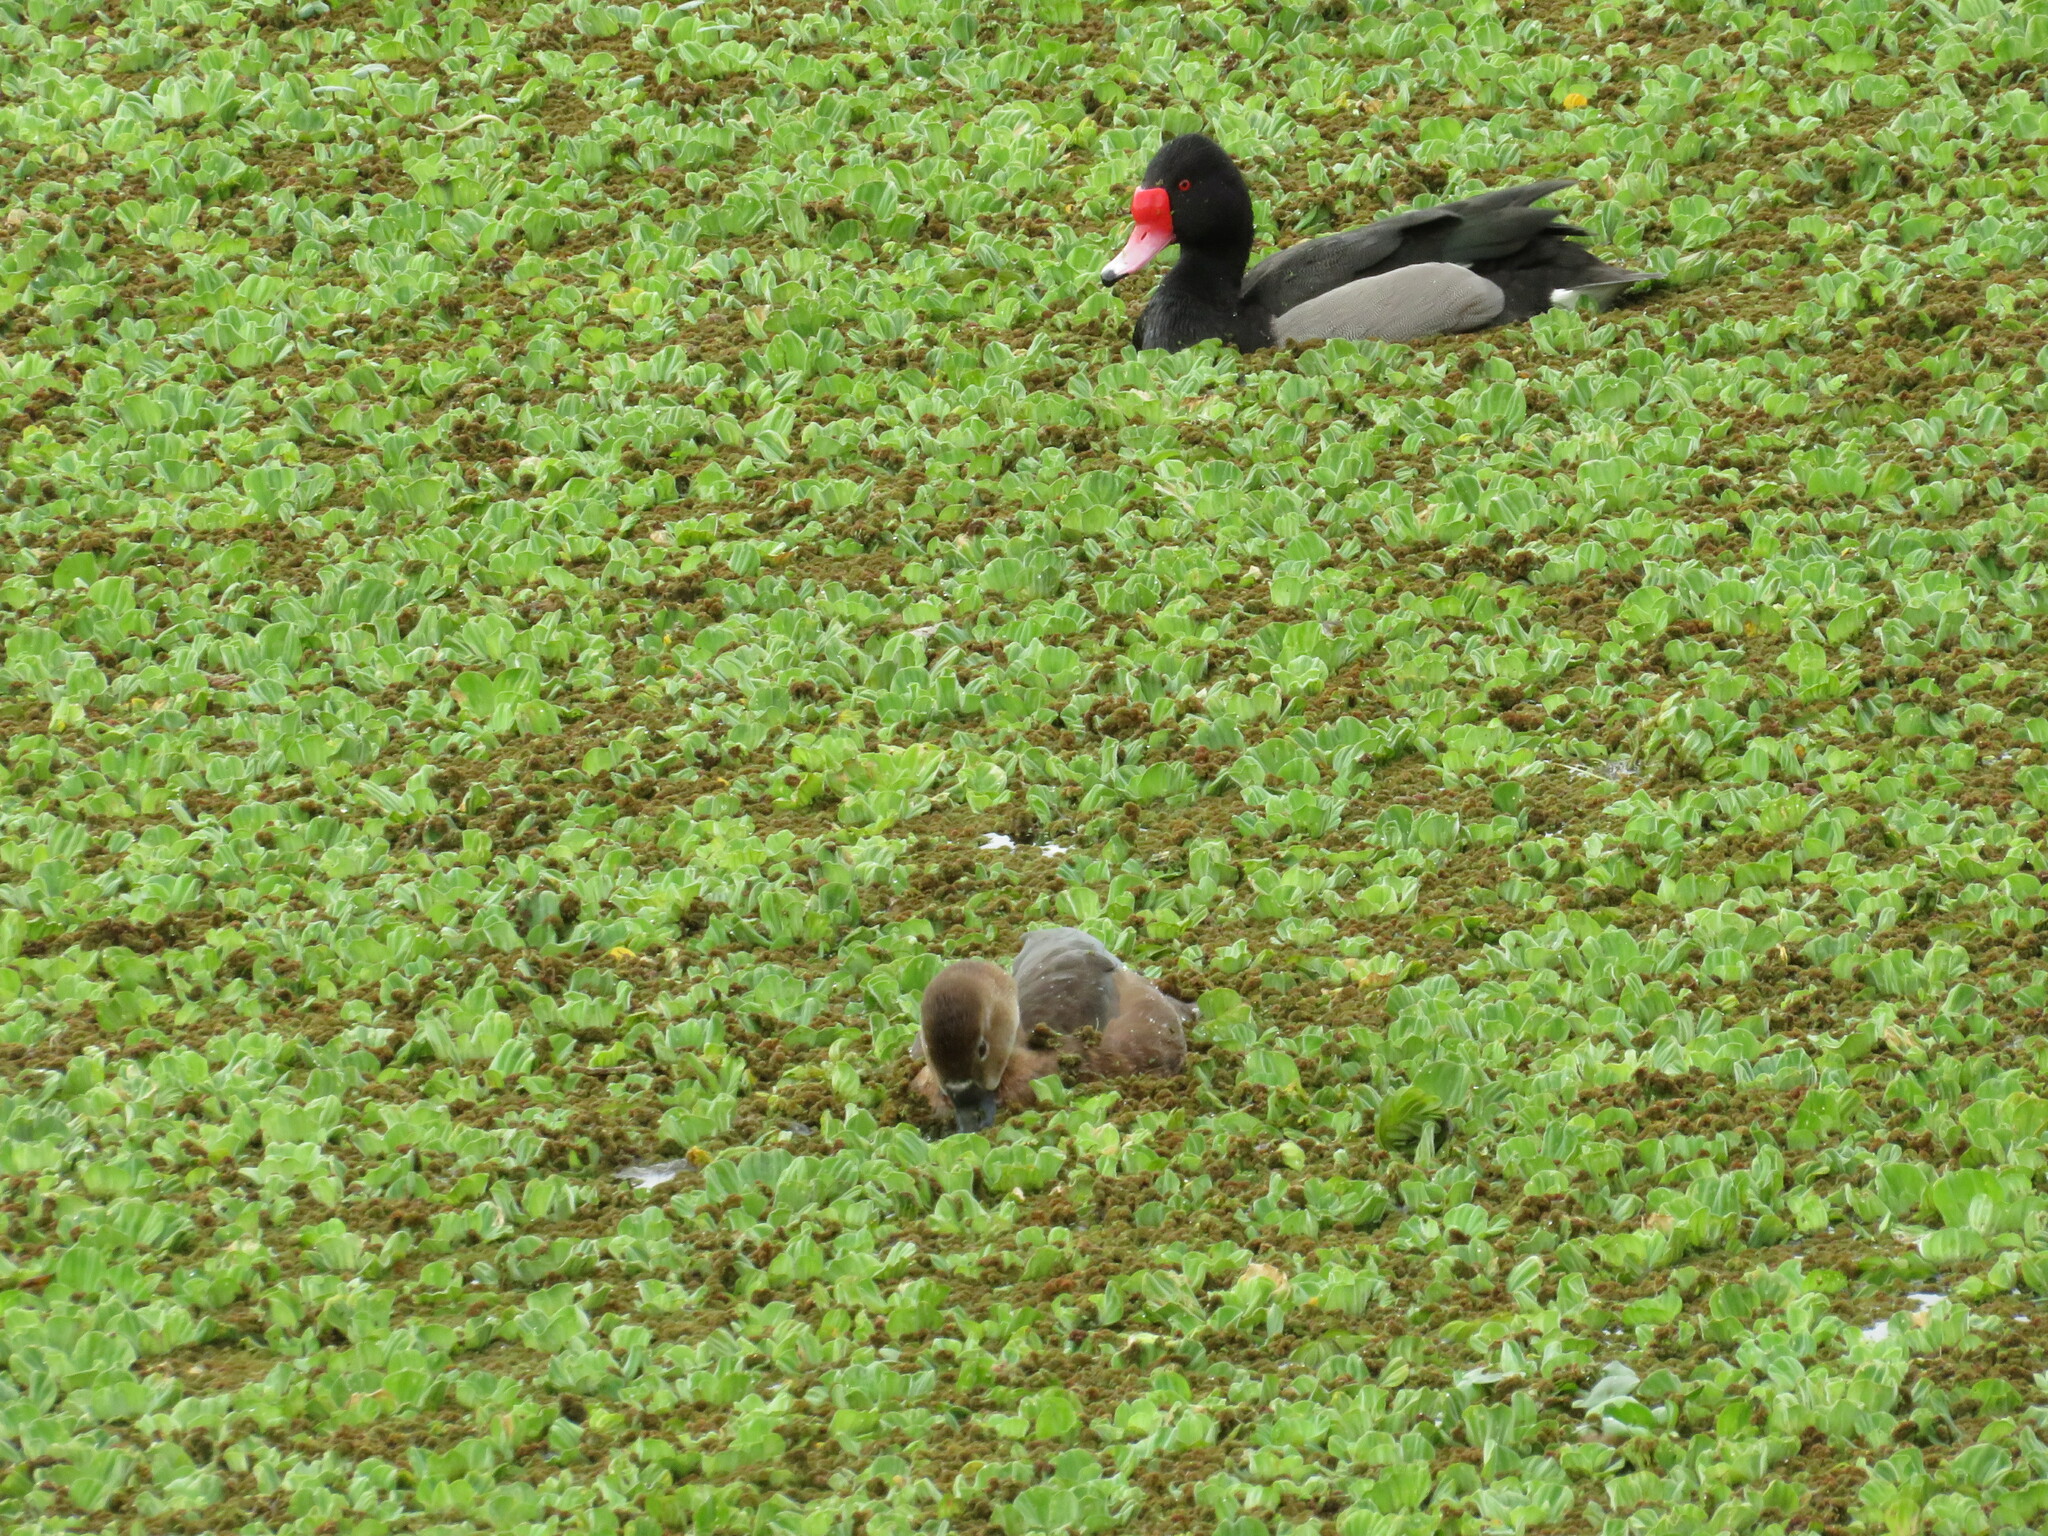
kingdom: Animalia
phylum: Chordata
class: Aves
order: Anseriformes
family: Anatidae
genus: Netta
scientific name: Netta peposaca
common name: Rosy-billed pochard
